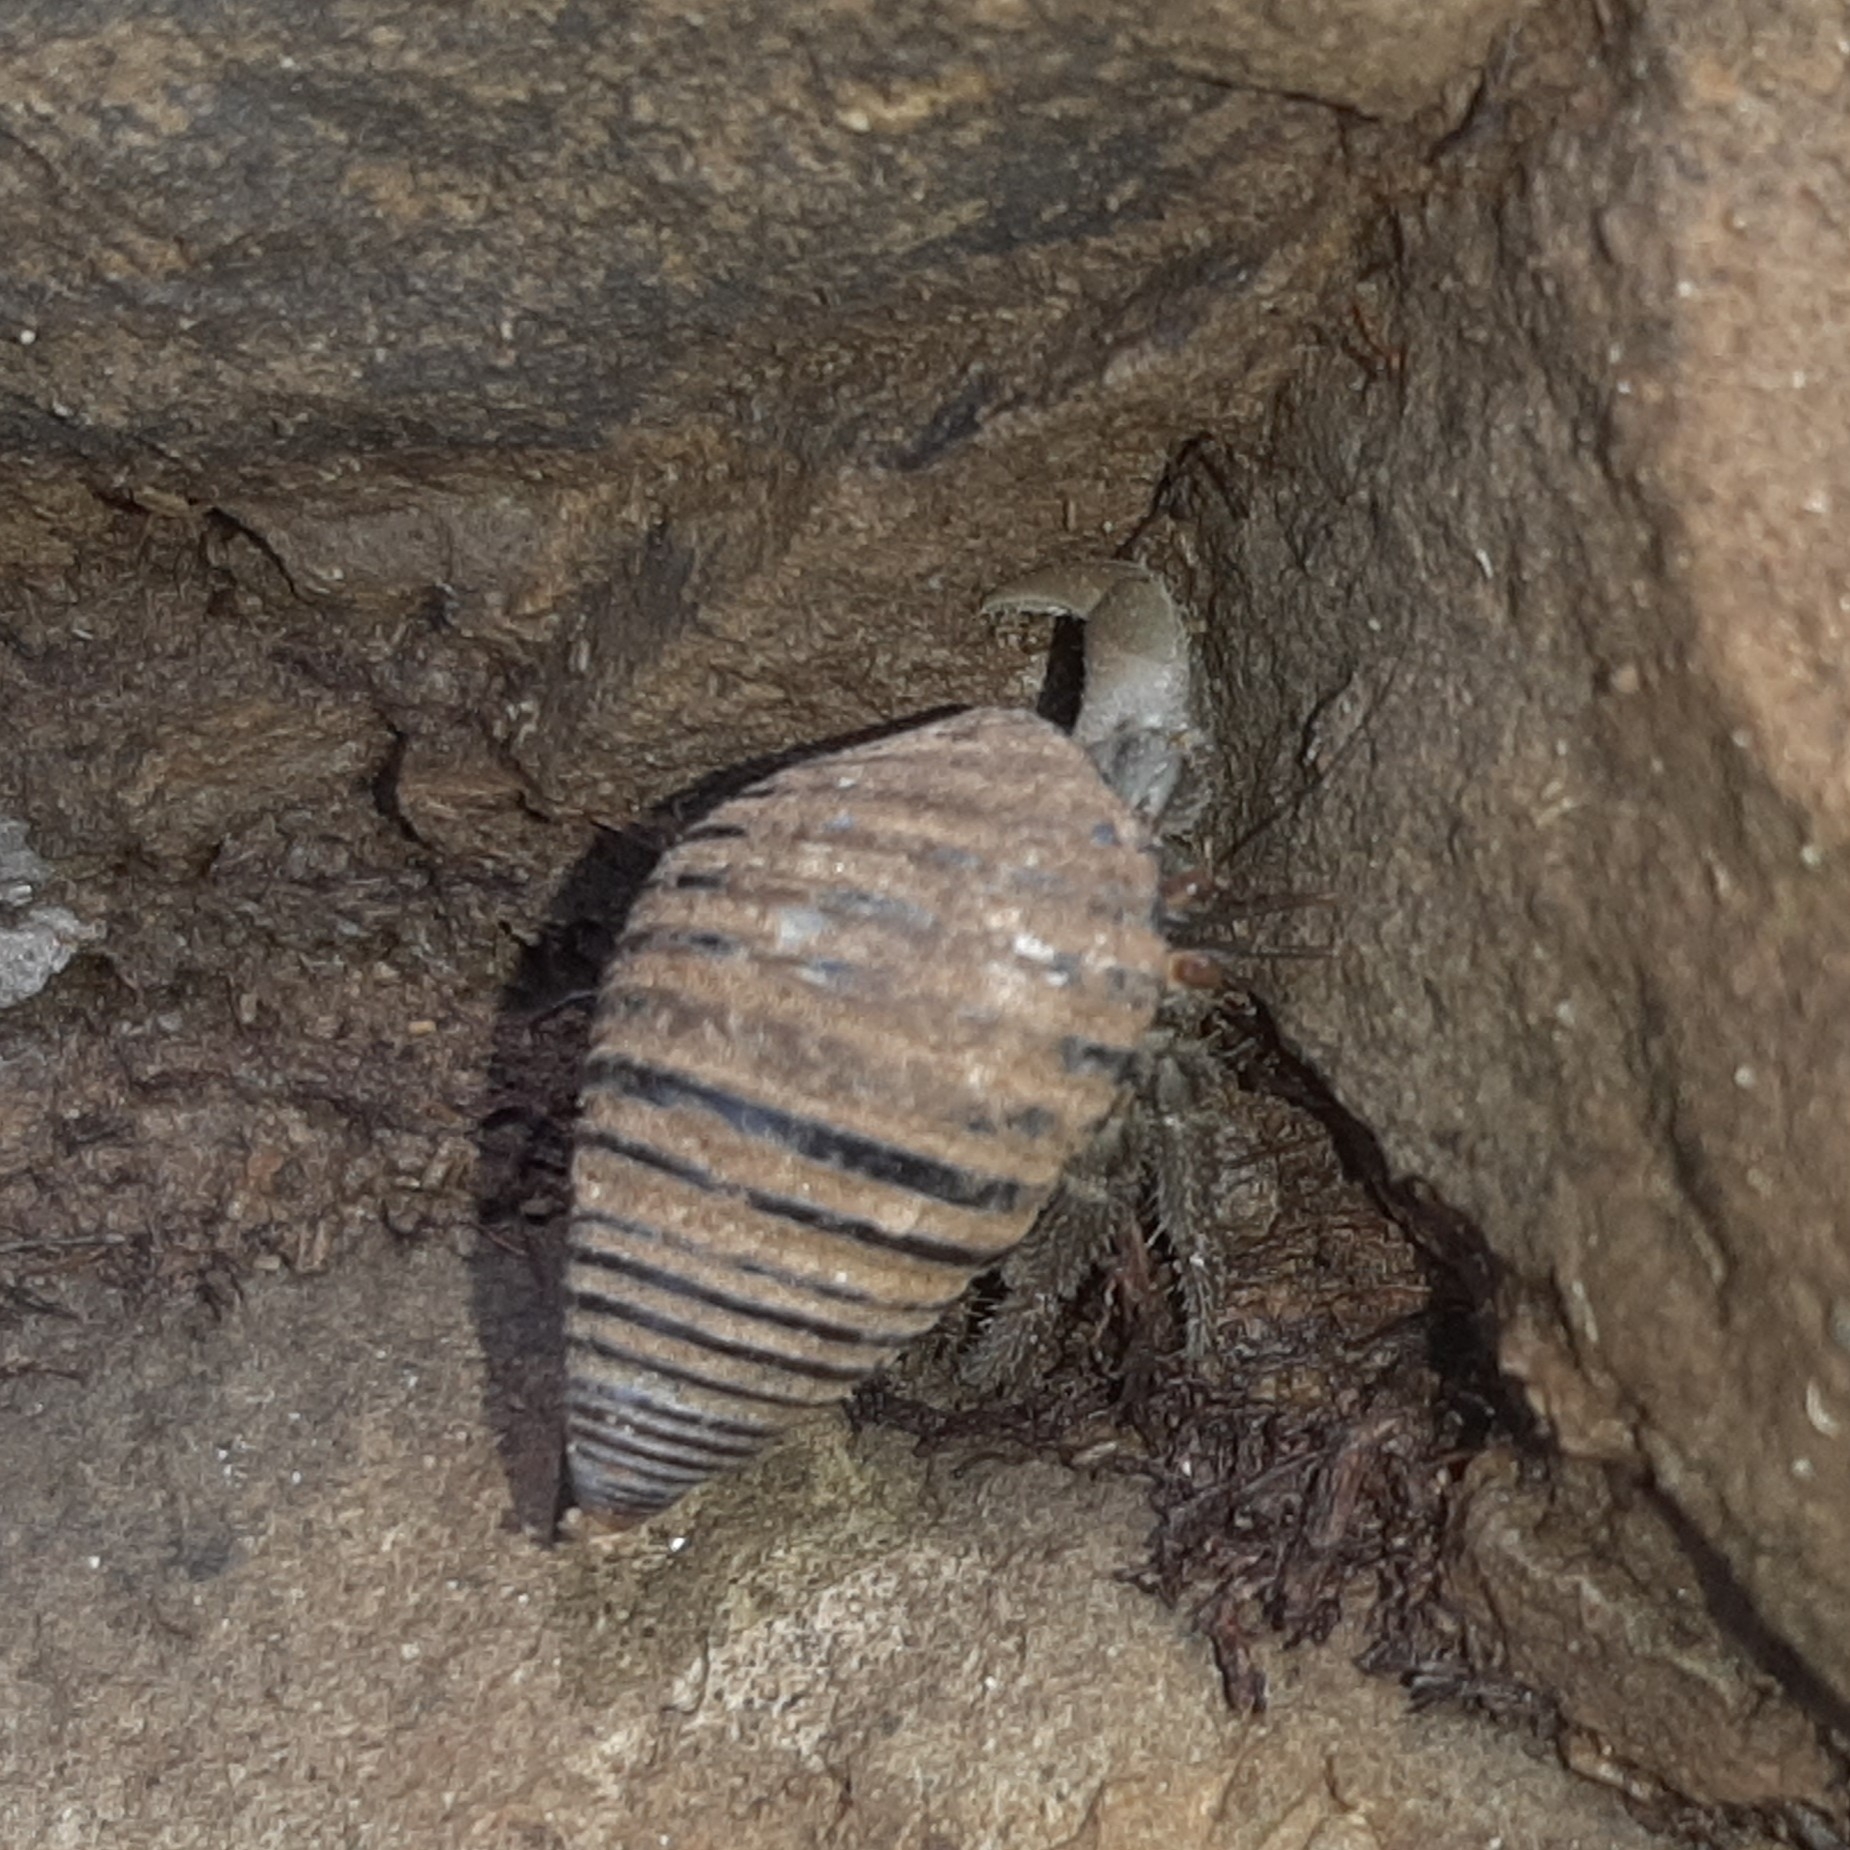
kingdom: Animalia
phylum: Arthropoda
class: Malacostraca
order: Decapoda
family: Coenobitidae
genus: Coenobita
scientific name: Coenobita compressus
